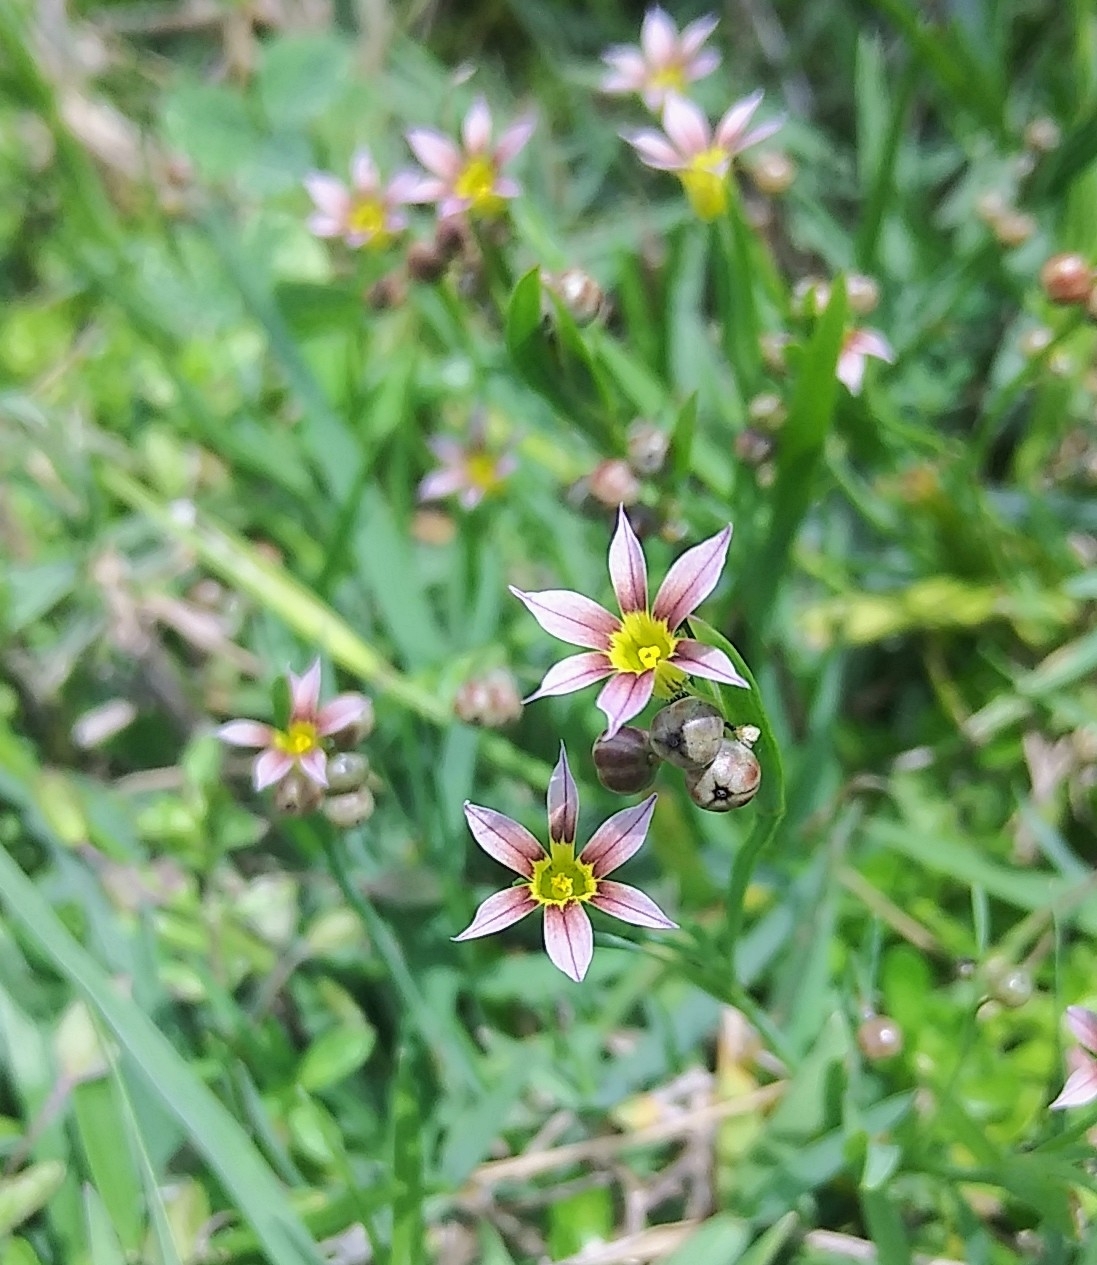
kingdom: Plantae
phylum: Tracheophyta
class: Liliopsida
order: Asparagales
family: Iridaceae
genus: Sisyrinchium
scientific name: Sisyrinchium micranthum
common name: Bermuda pigroot
